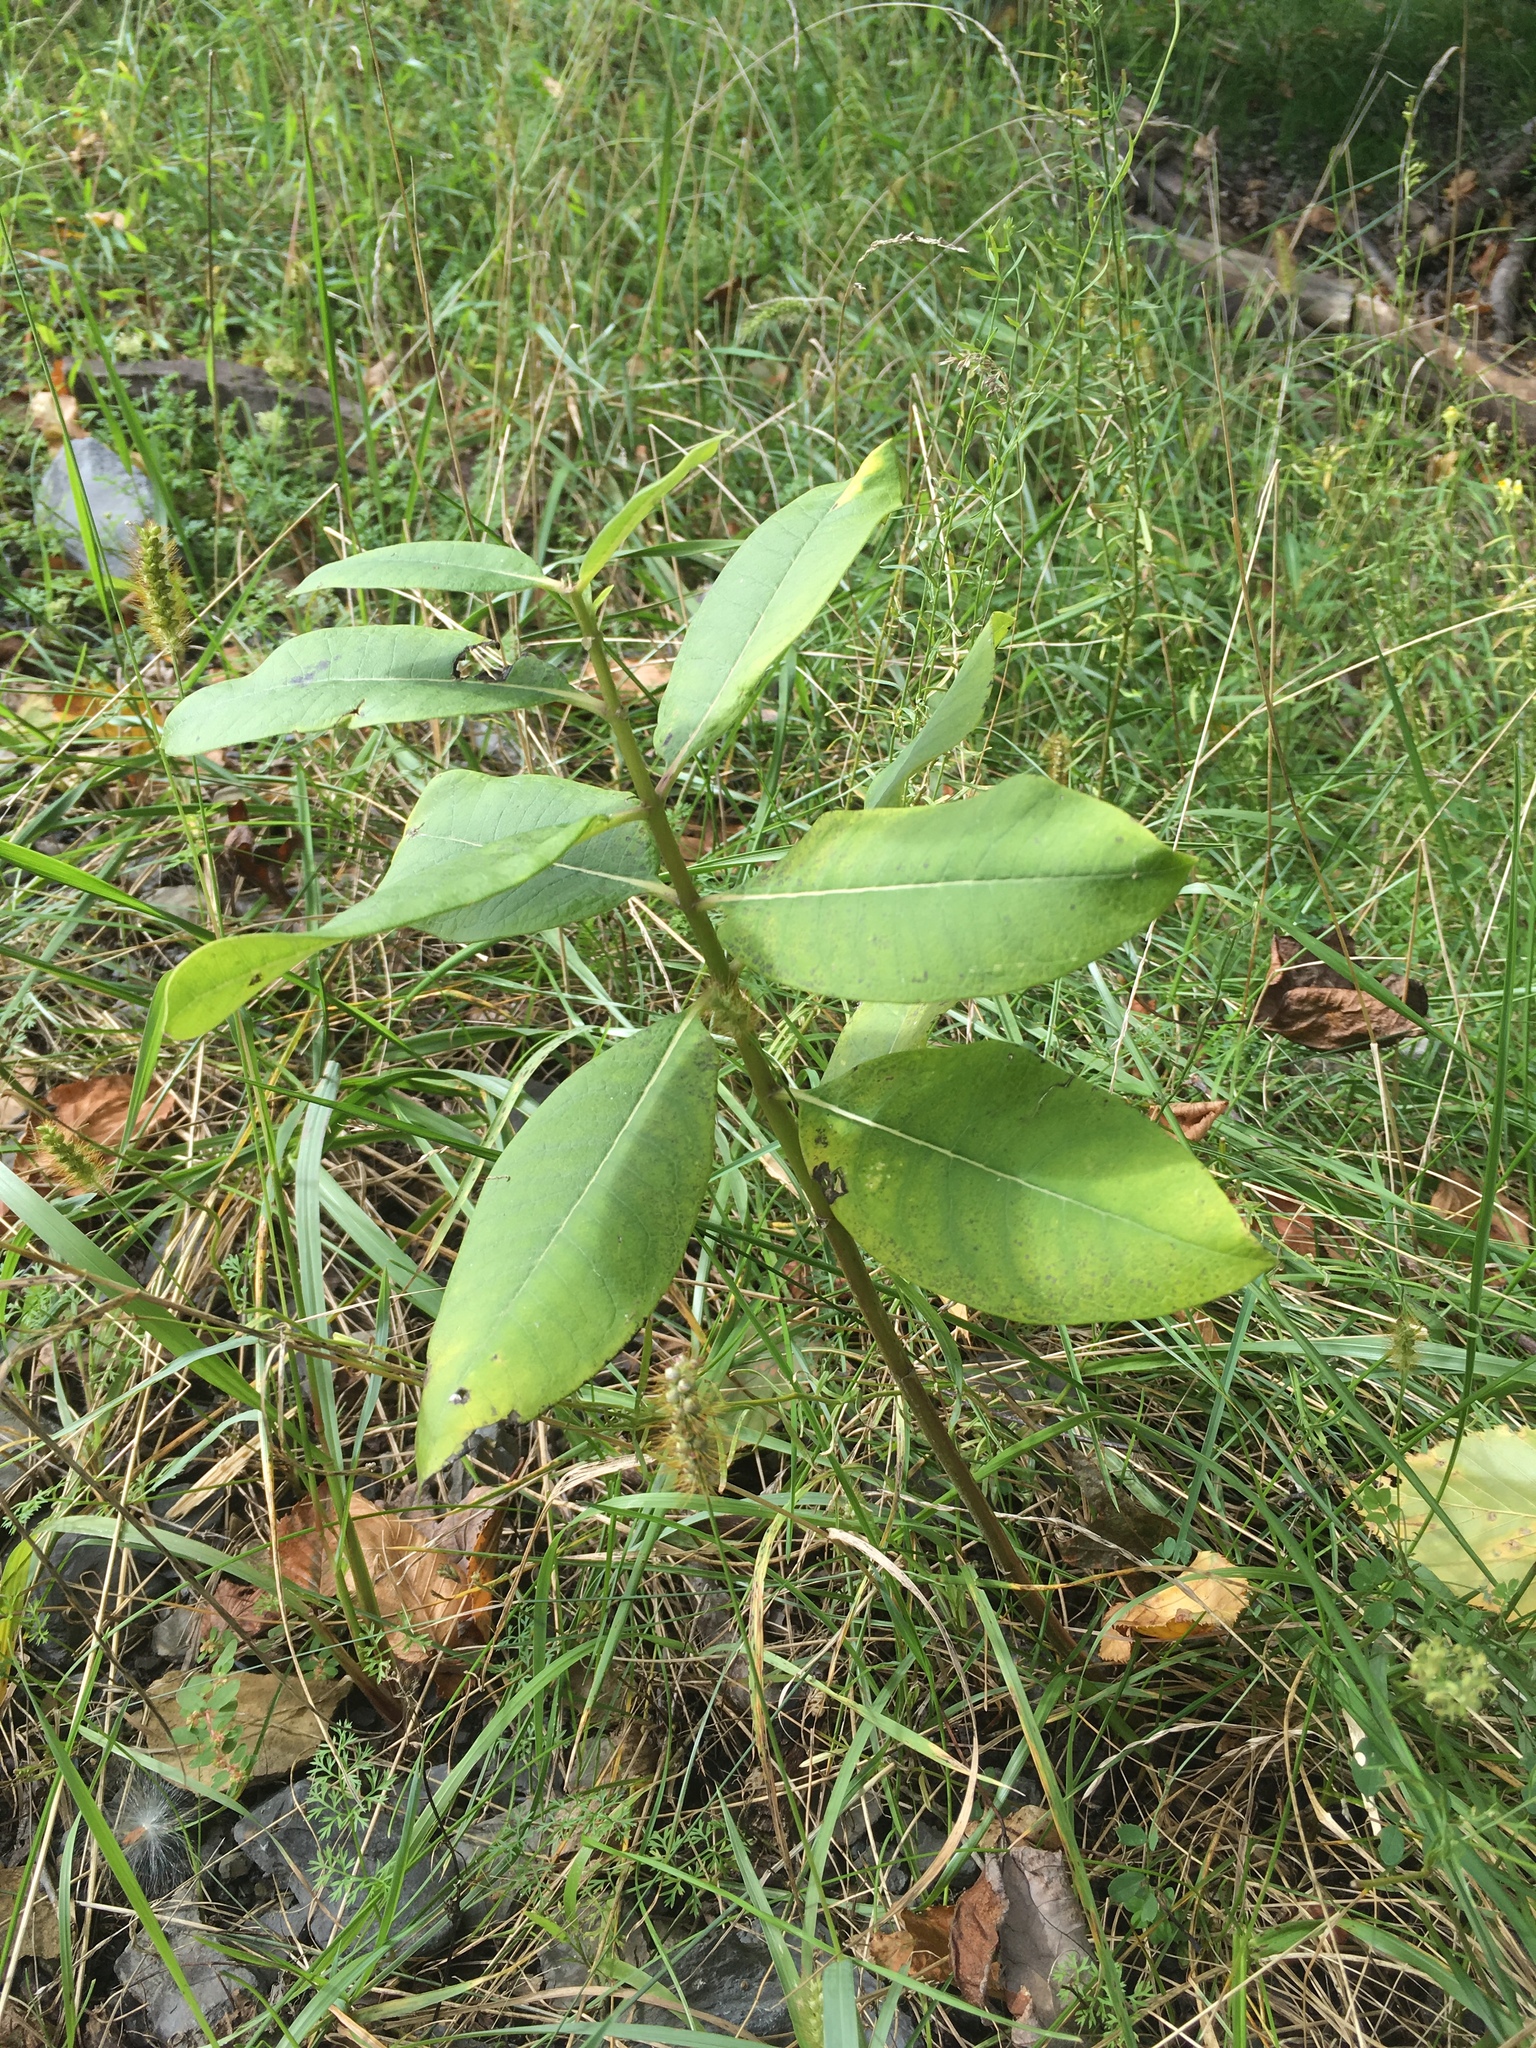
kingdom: Plantae
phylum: Tracheophyta
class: Magnoliopsida
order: Gentianales
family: Apocynaceae
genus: Asclepias
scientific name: Asclepias syriaca
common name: Common milkweed
